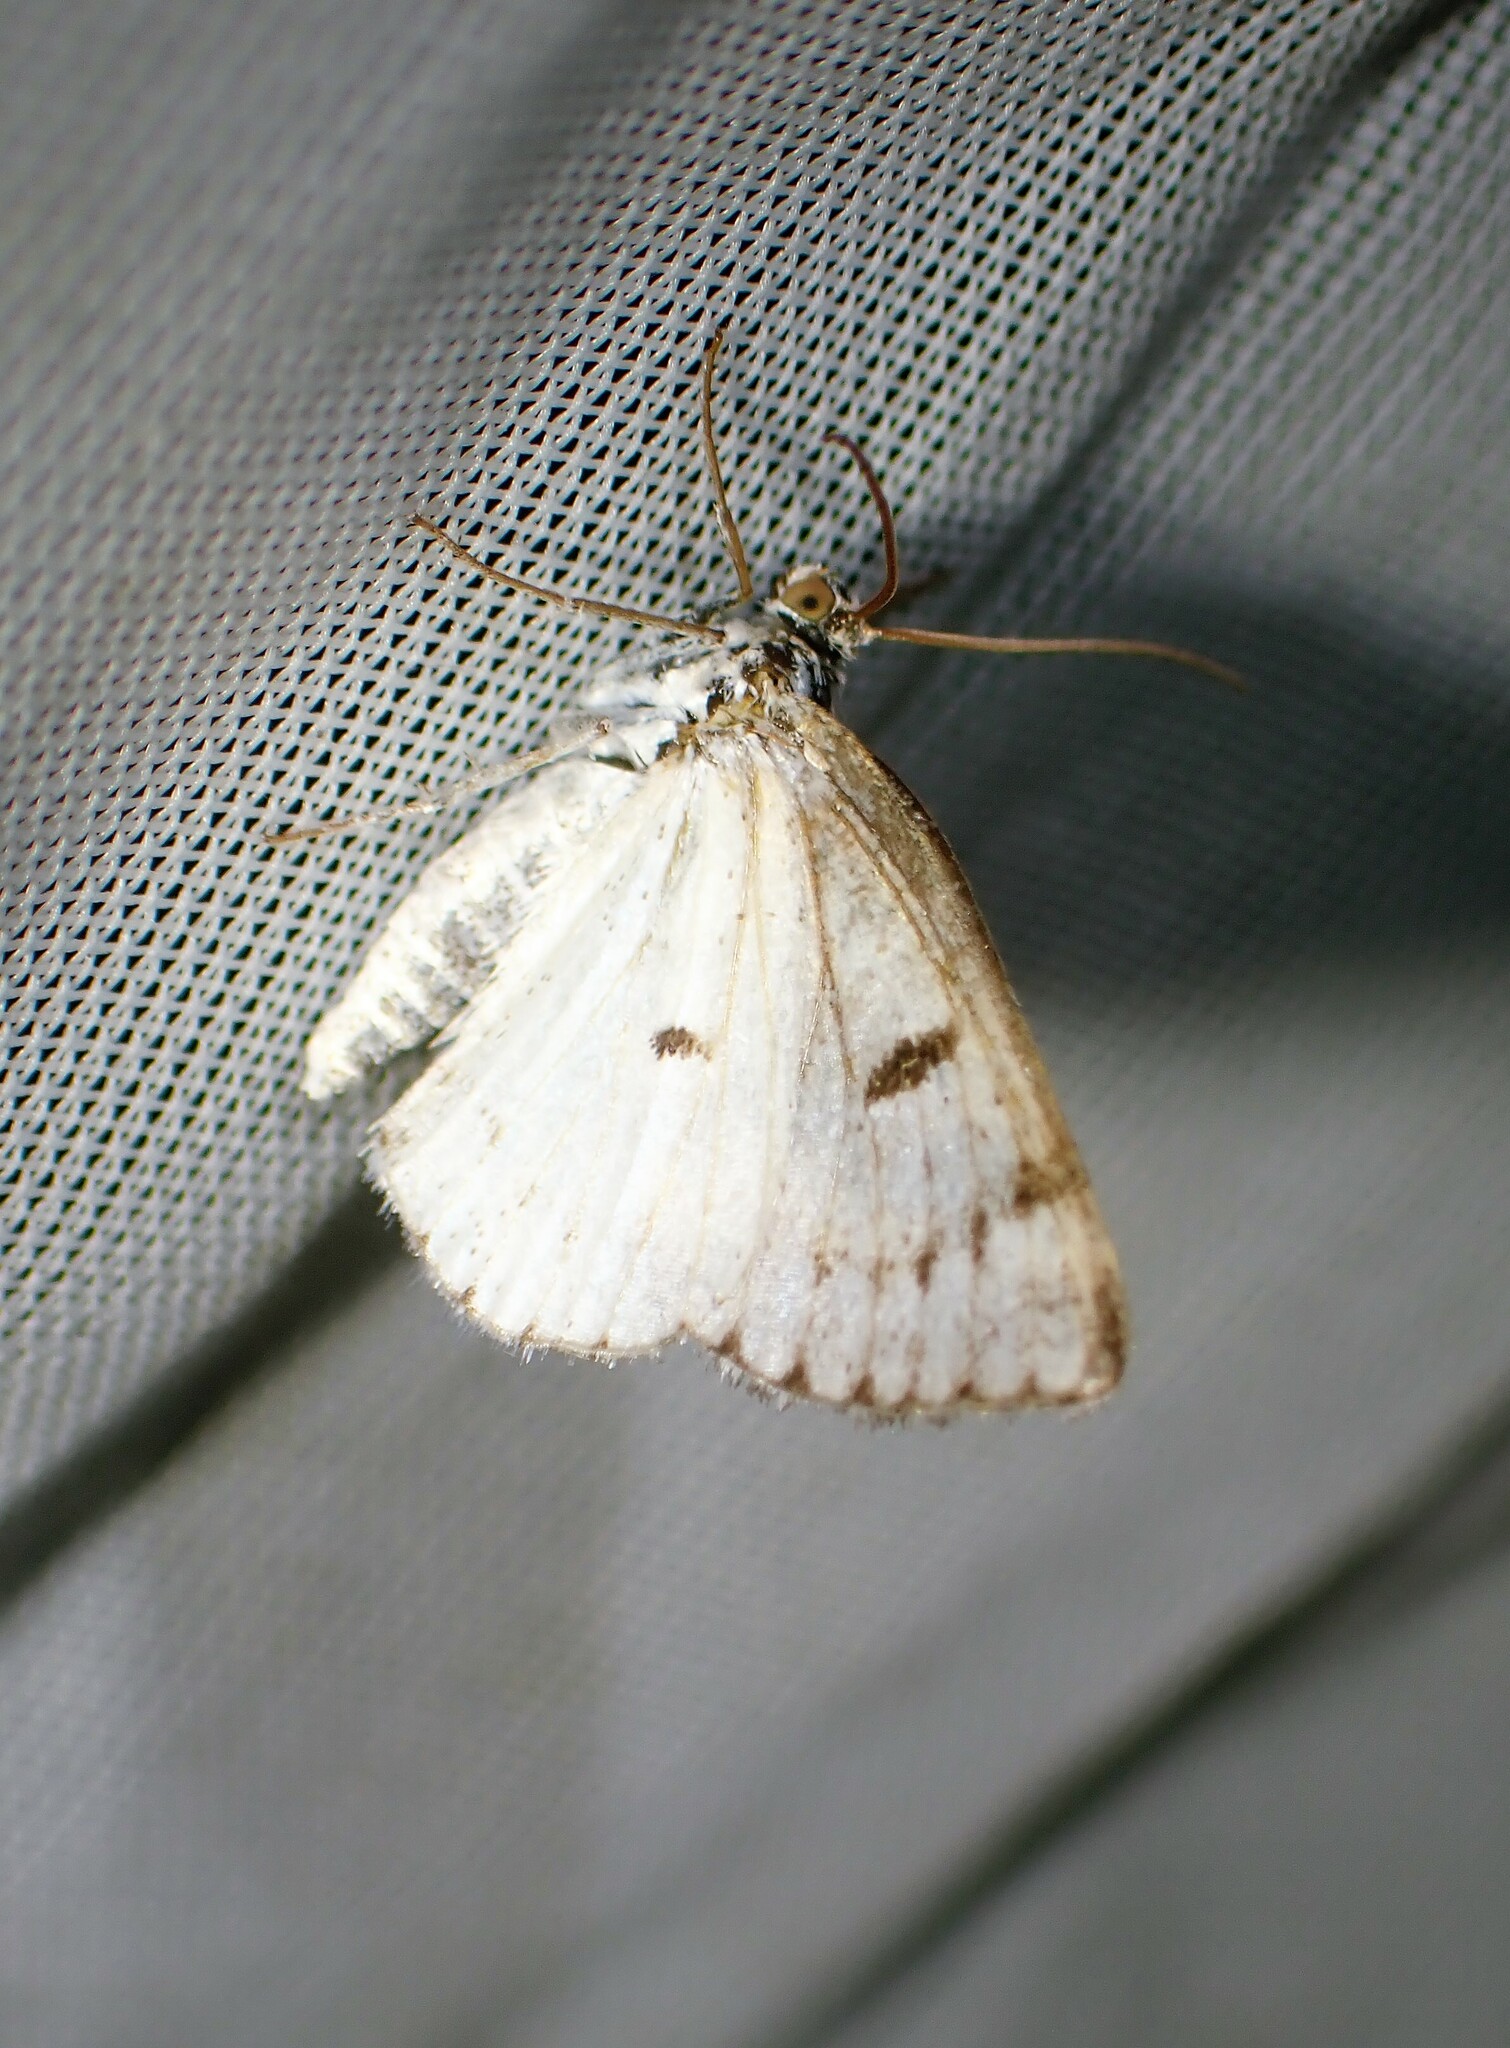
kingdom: Animalia
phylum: Arthropoda
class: Insecta
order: Lepidoptera
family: Geometridae
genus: Lomographa
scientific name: Lomographa semiclarata
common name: Bluish spring moth
